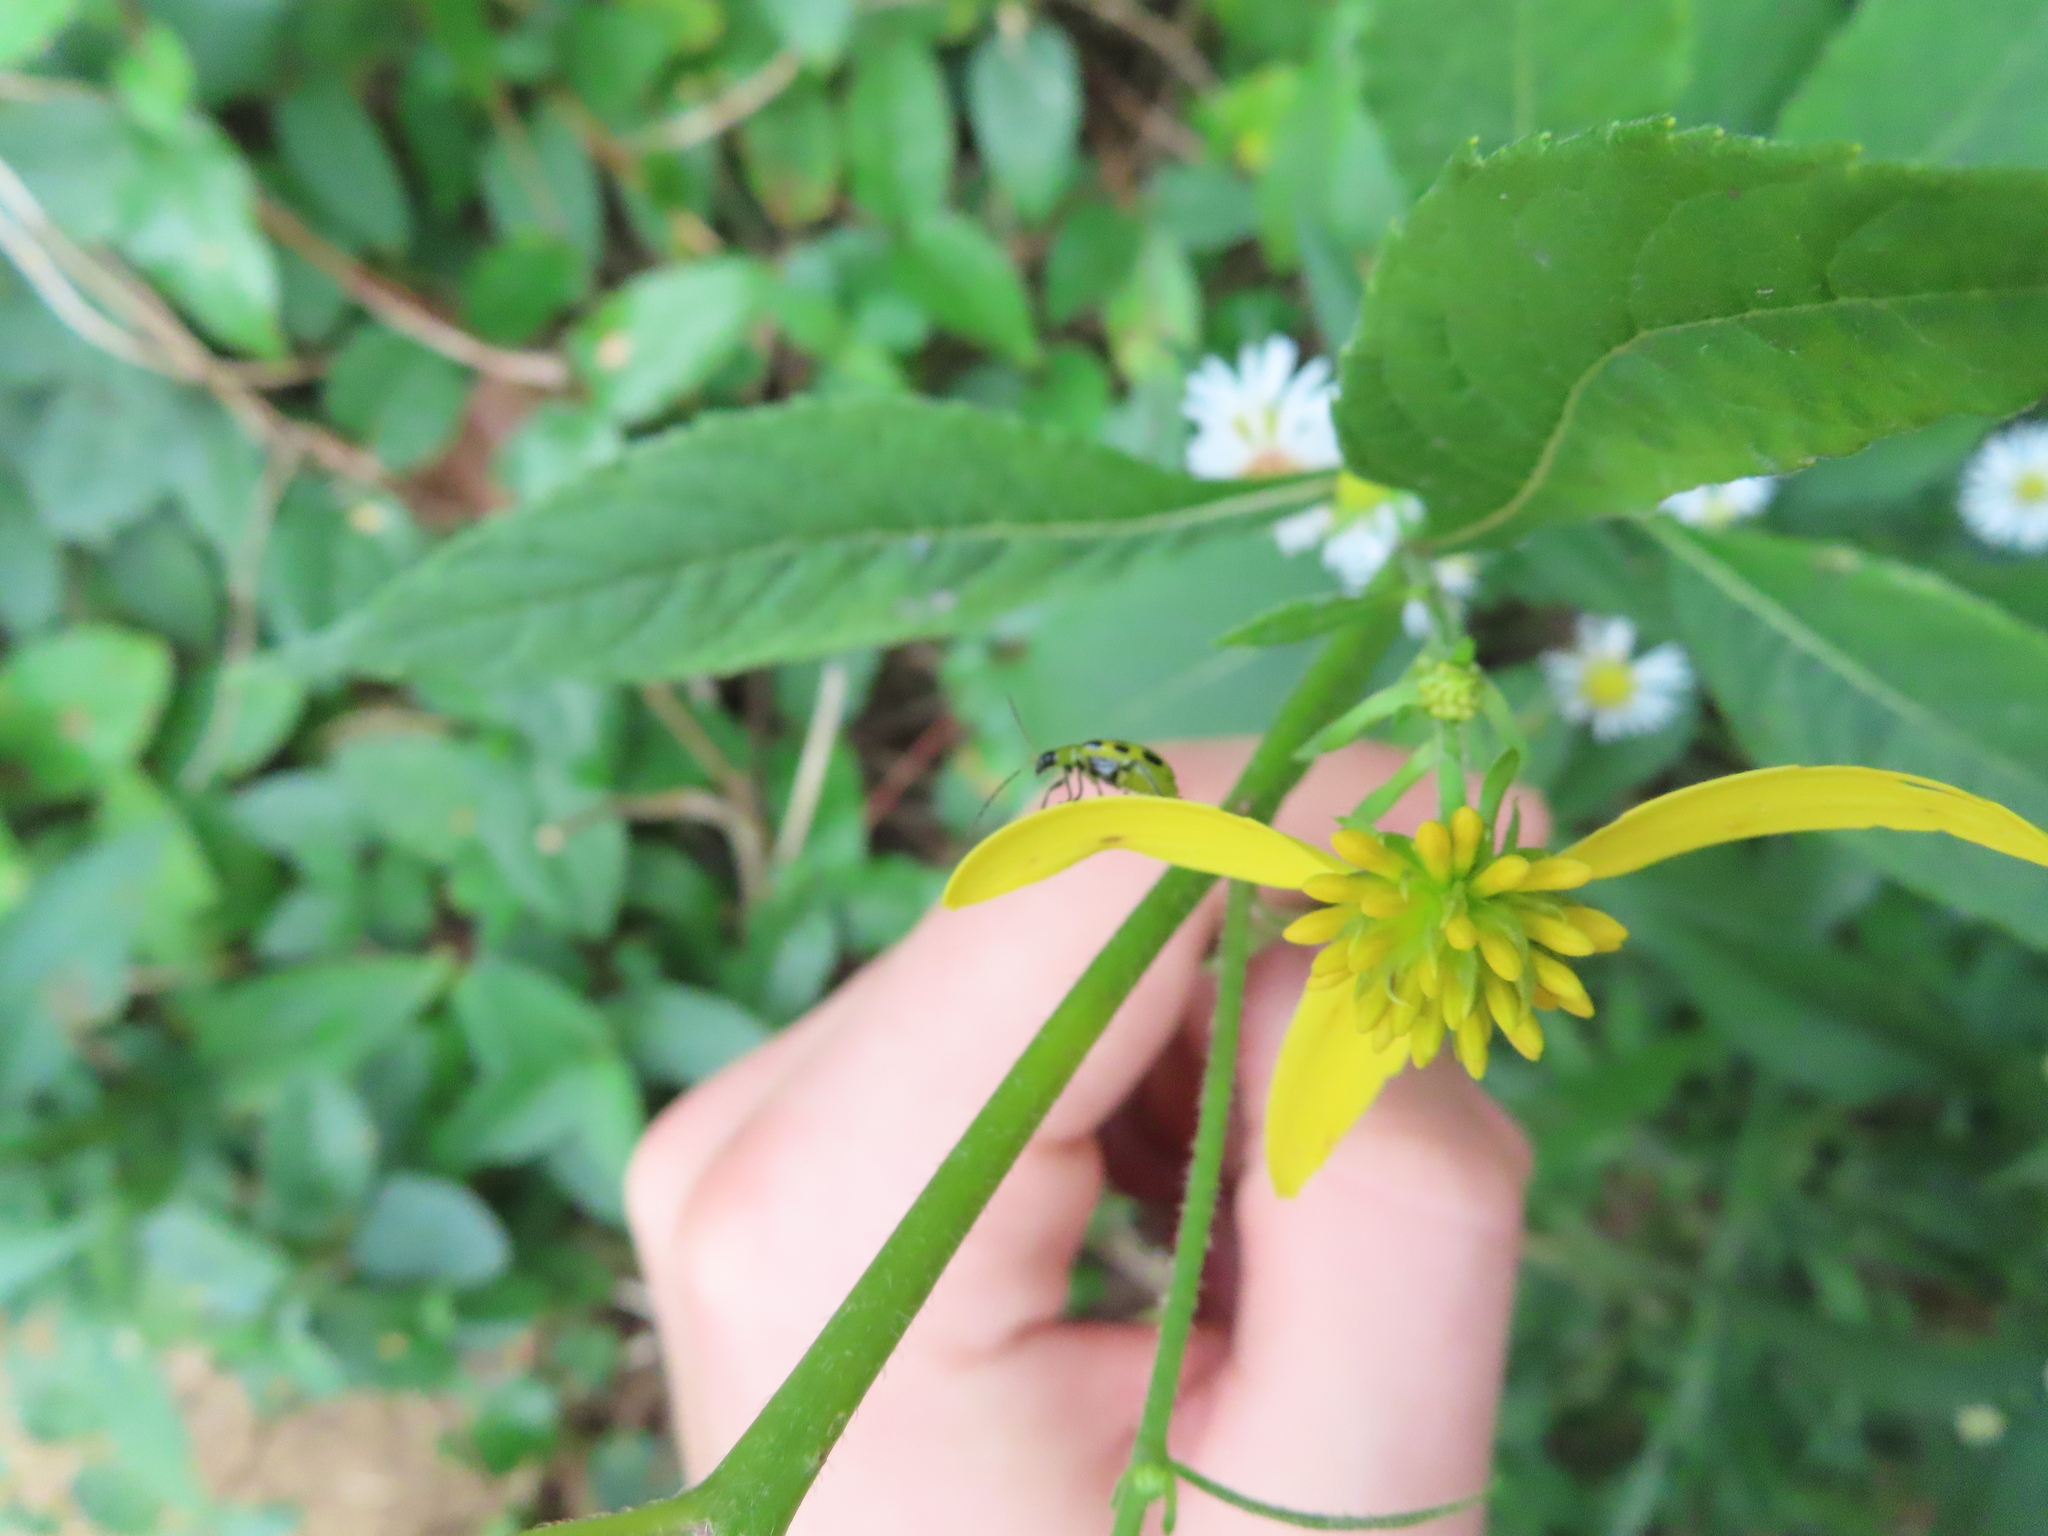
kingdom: Animalia
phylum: Arthropoda
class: Insecta
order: Coleoptera
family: Chrysomelidae
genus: Diabrotica
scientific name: Diabrotica undecimpunctata
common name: Spotted cucumber beetle
